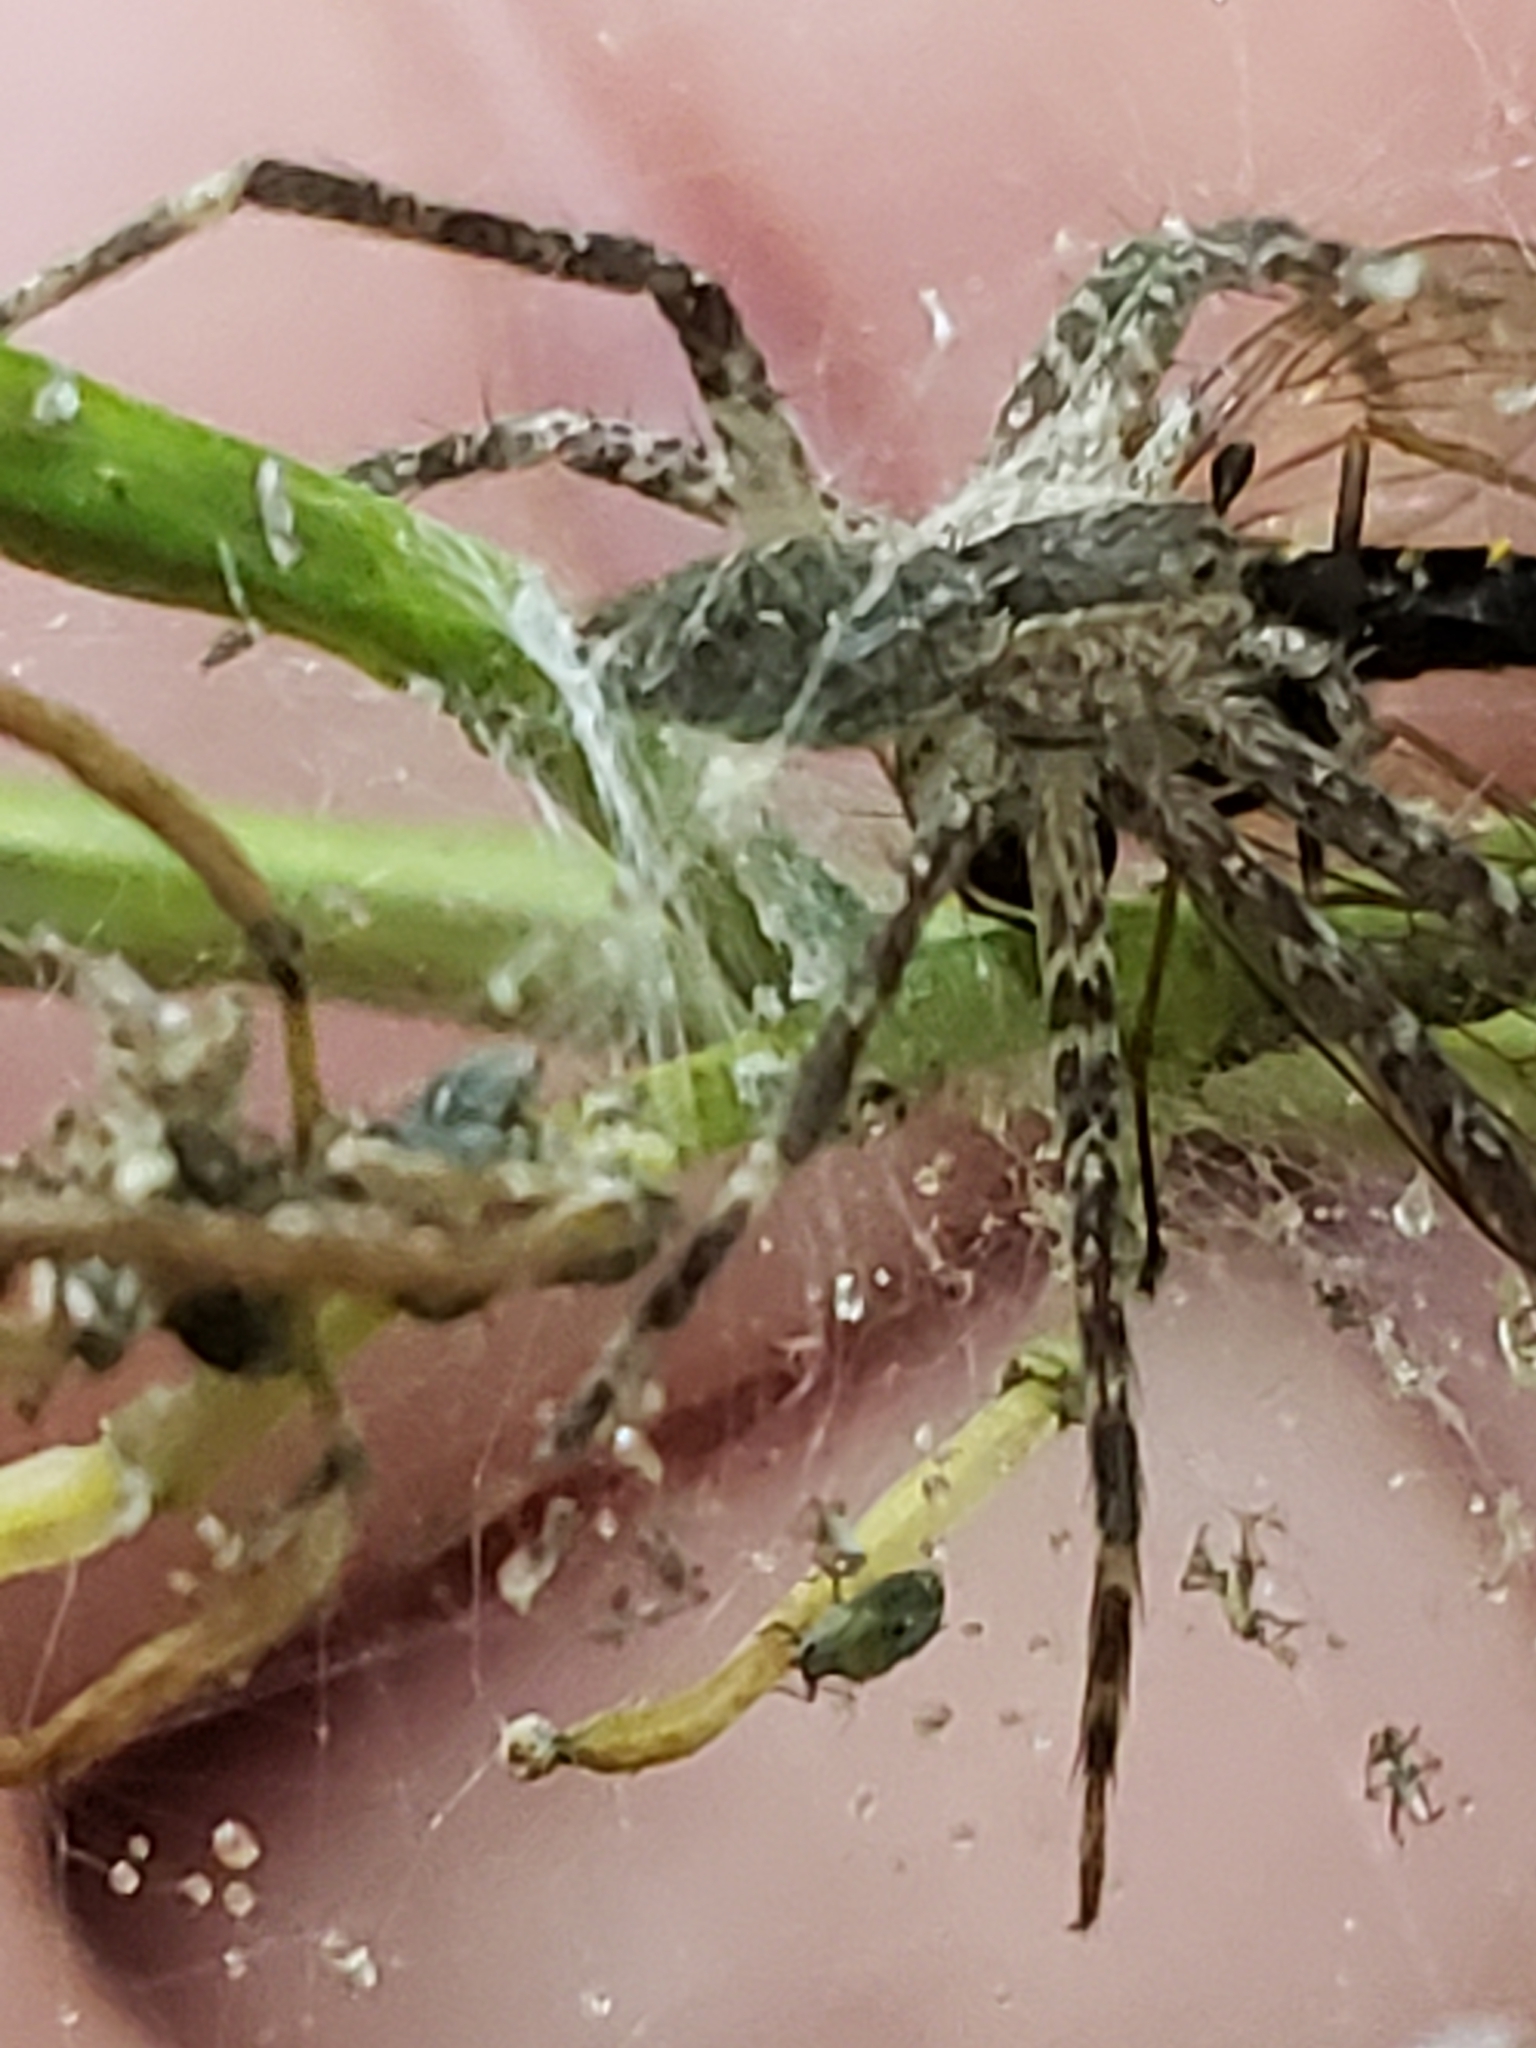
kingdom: Animalia
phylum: Arthropoda
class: Arachnida
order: Araneae
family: Pisauridae
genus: Pisaurina
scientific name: Pisaurina mira
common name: American nursery web spider
